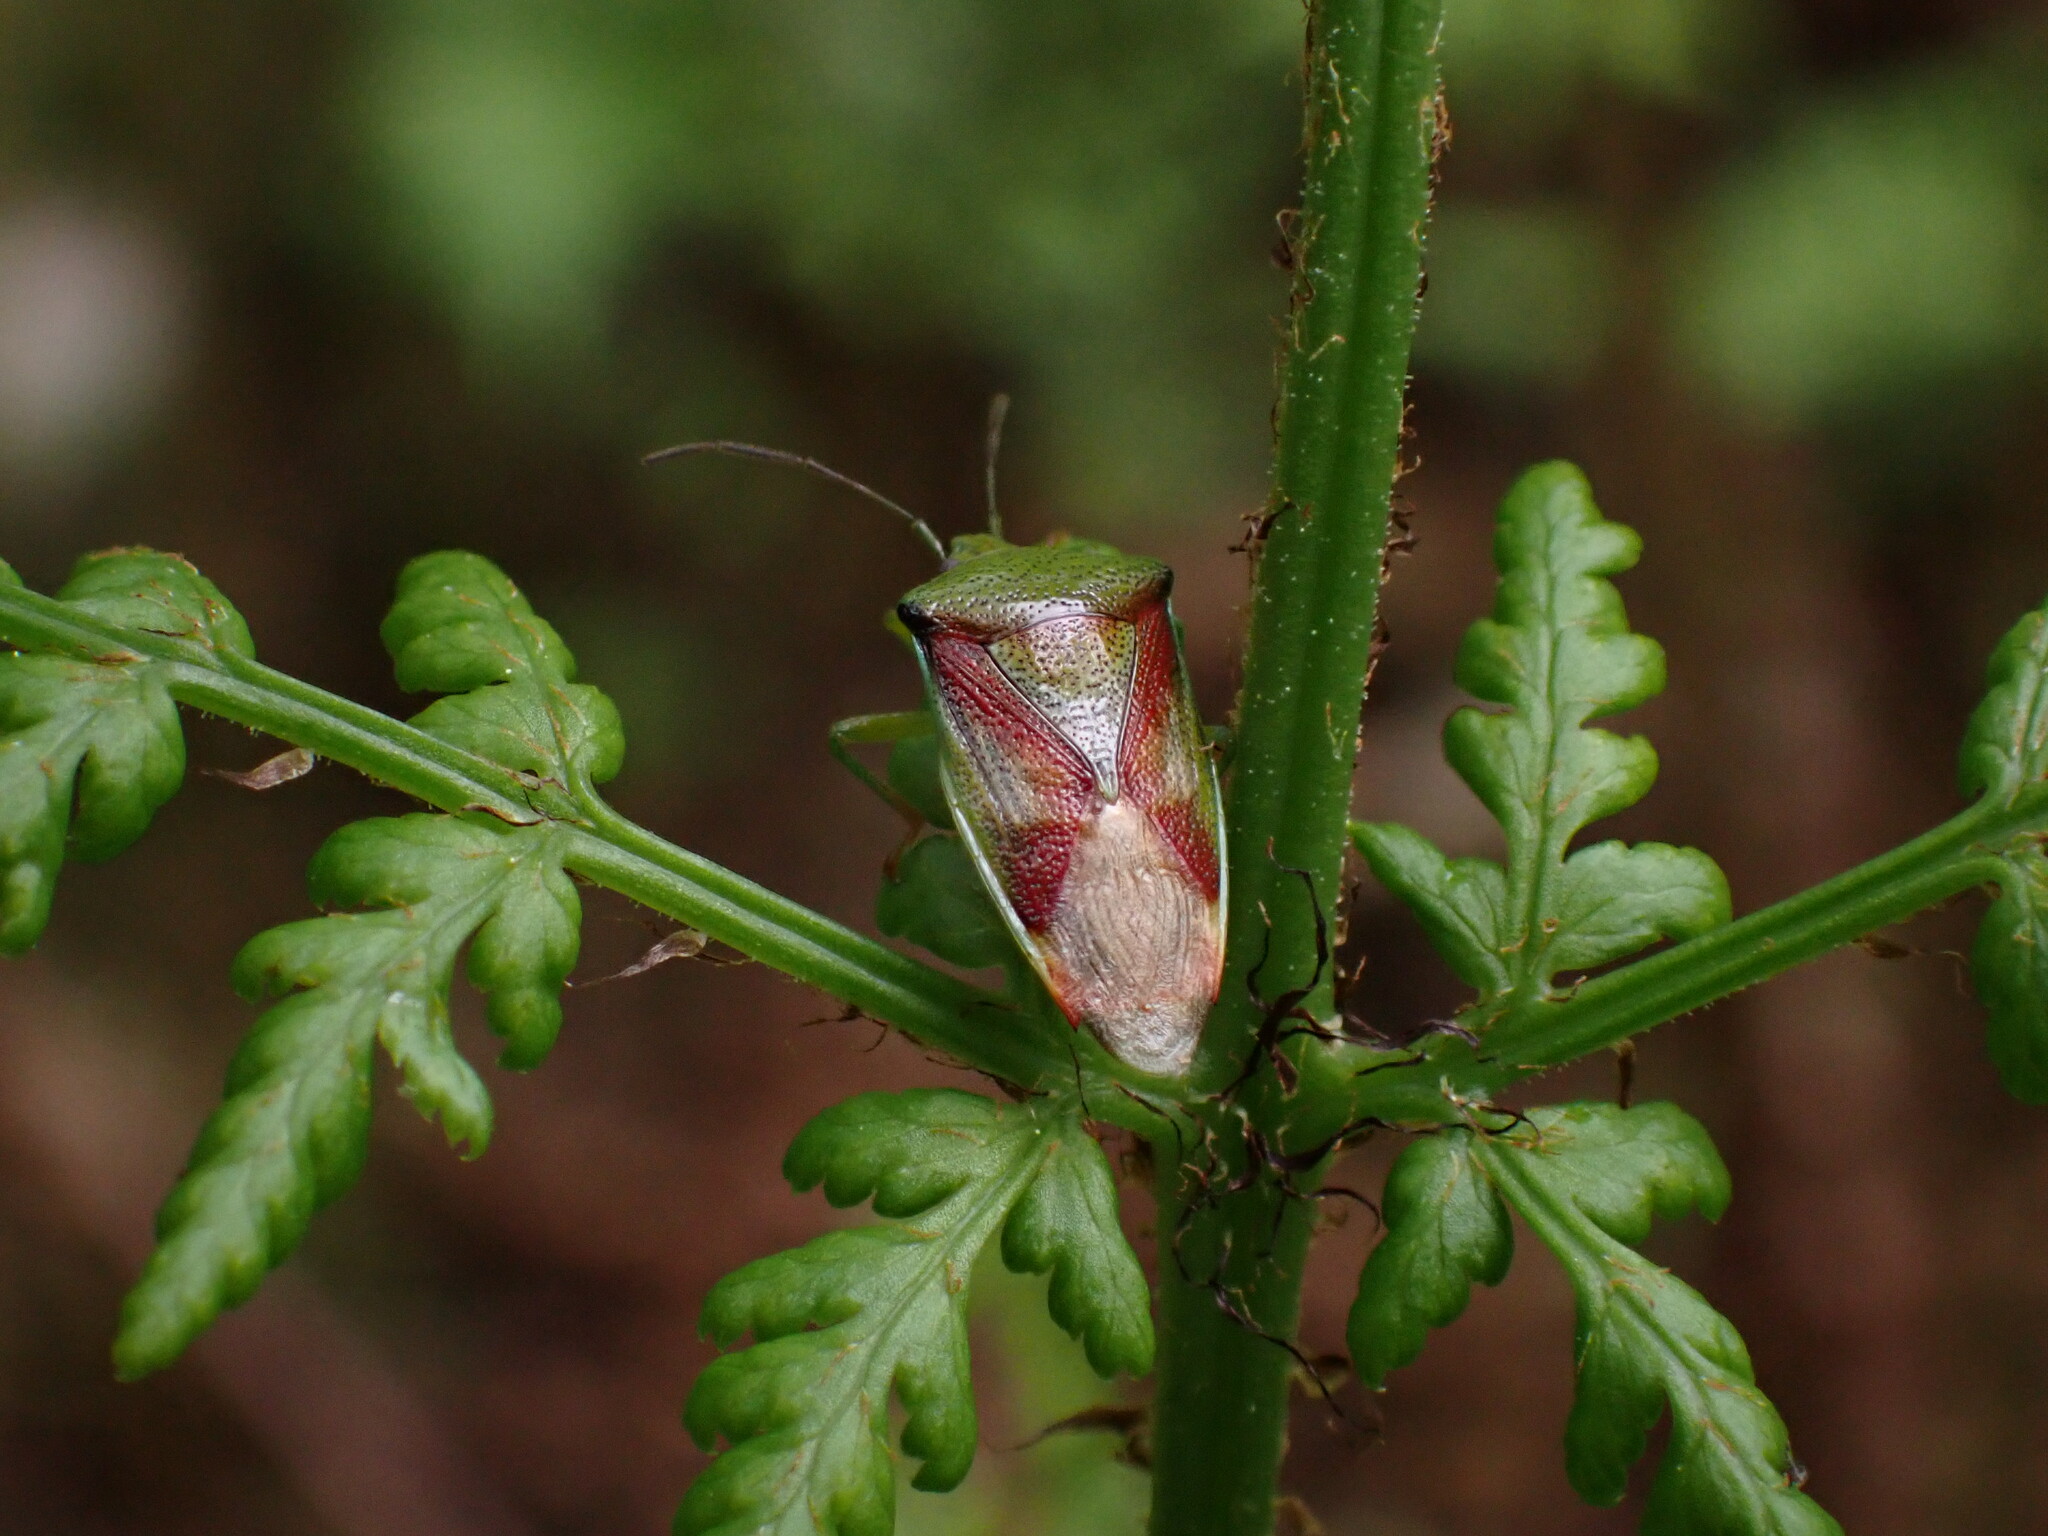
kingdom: Animalia
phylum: Arthropoda
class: Insecta
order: Hemiptera
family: Acanthosomatidae
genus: Elasmostethus
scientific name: Elasmostethus interstinctus
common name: Birch shieldbug
